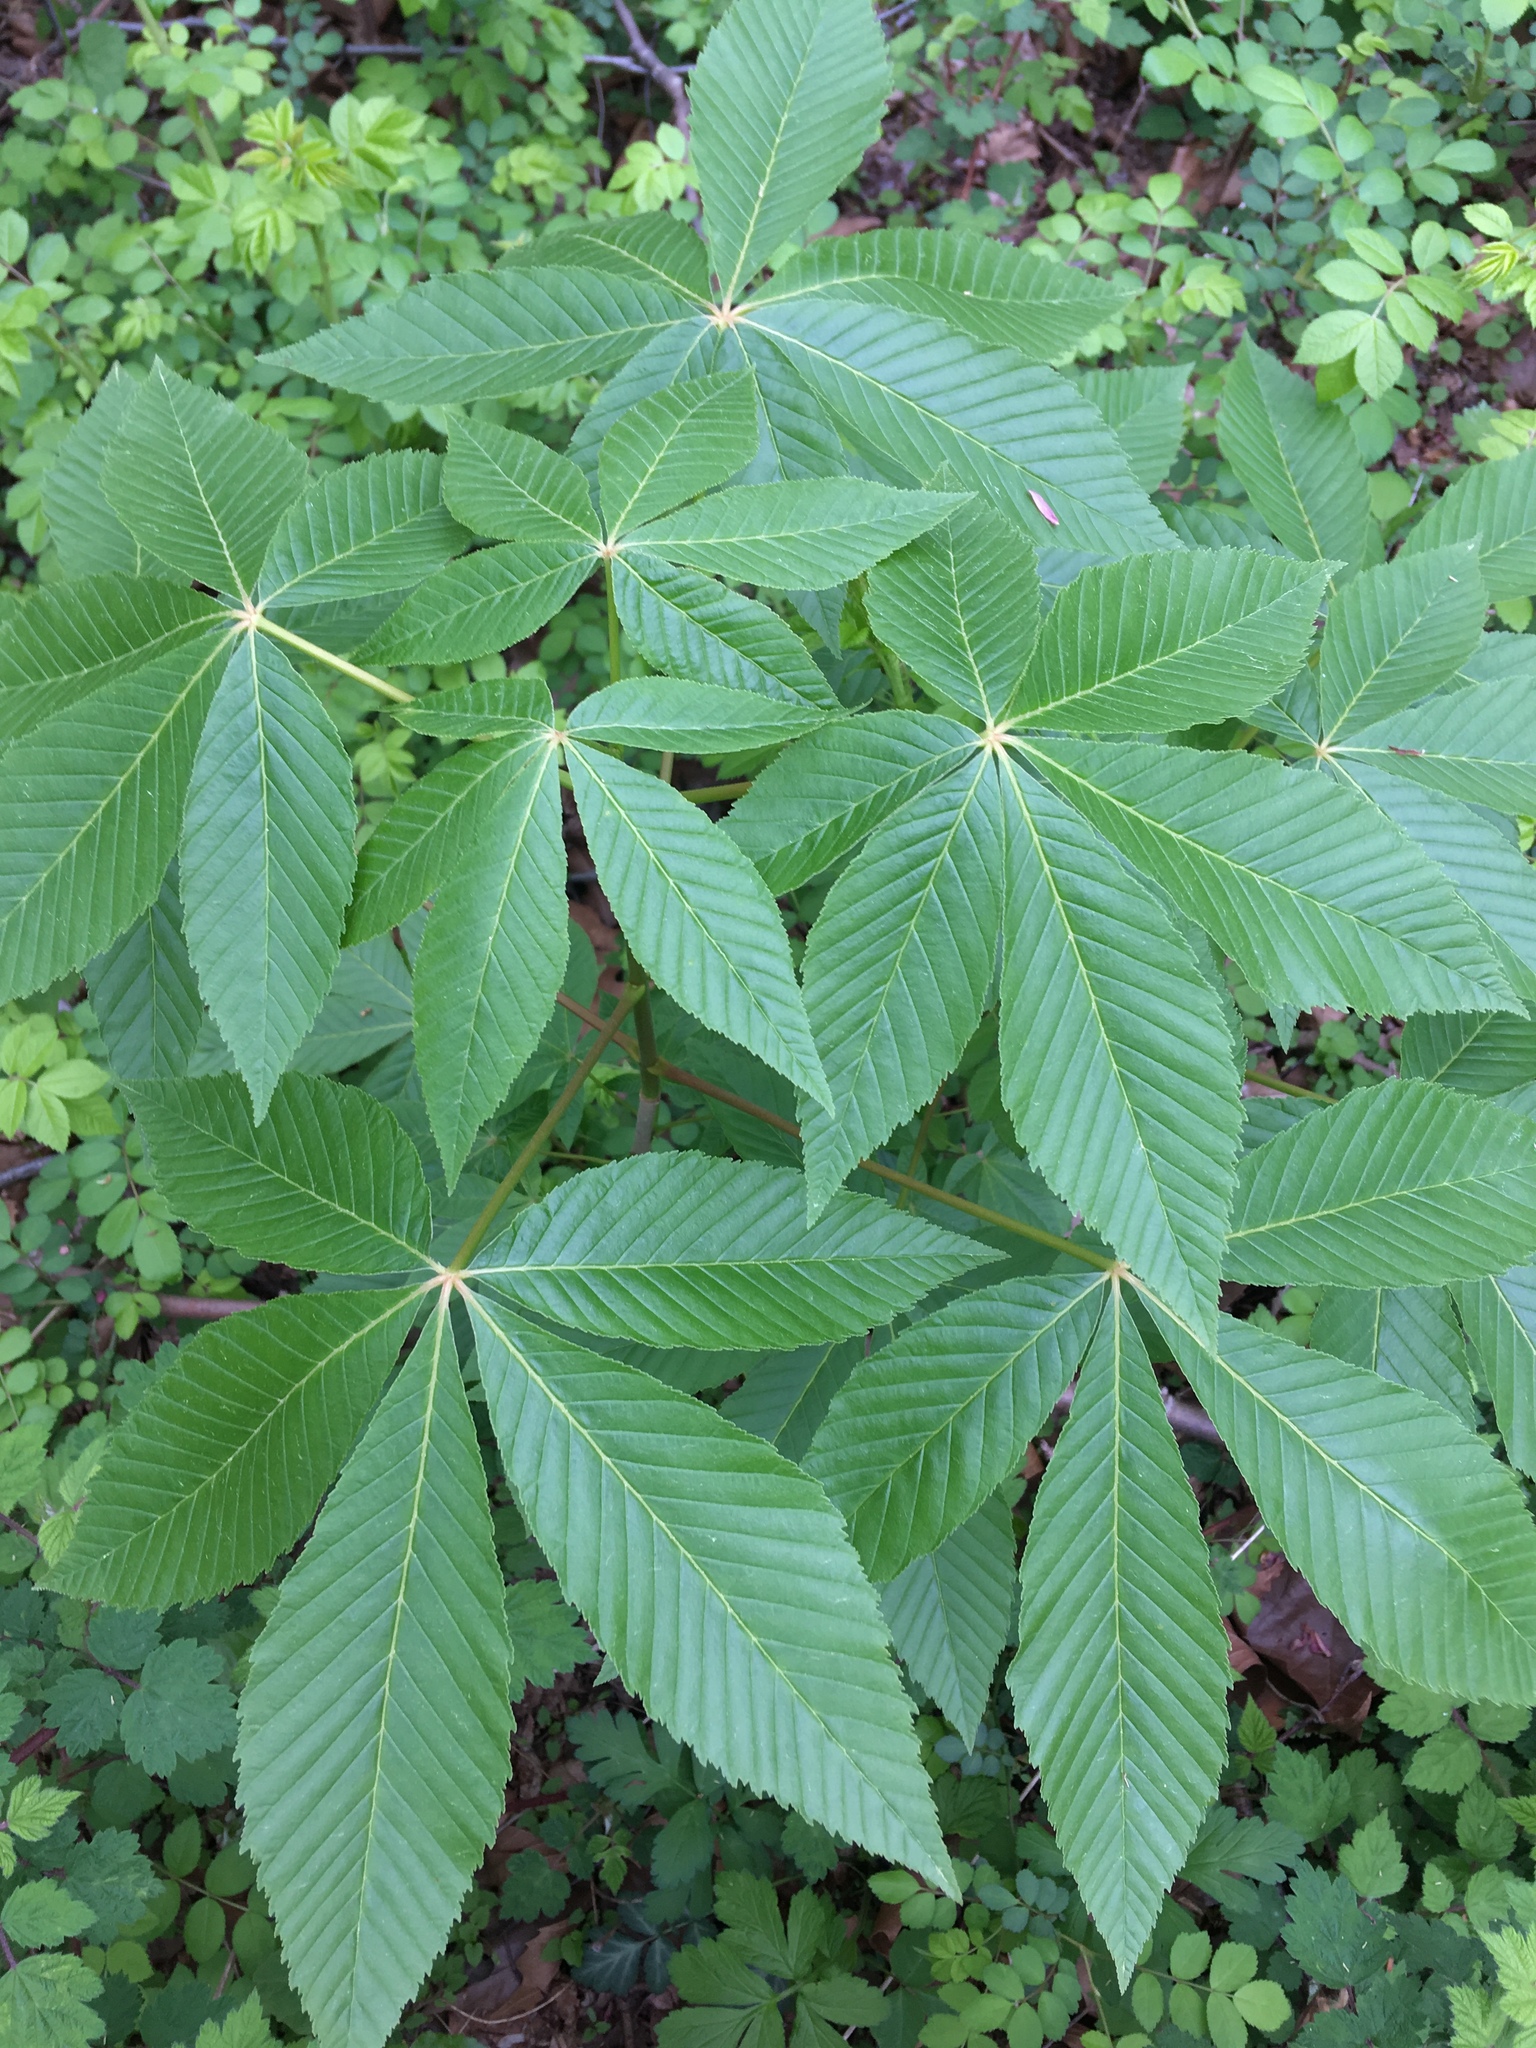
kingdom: Plantae
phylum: Tracheophyta
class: Magnoliopsida
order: Sapindales
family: Sapindaceae
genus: Aesculus
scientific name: Aesculus glabra
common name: Ohio buckeye
